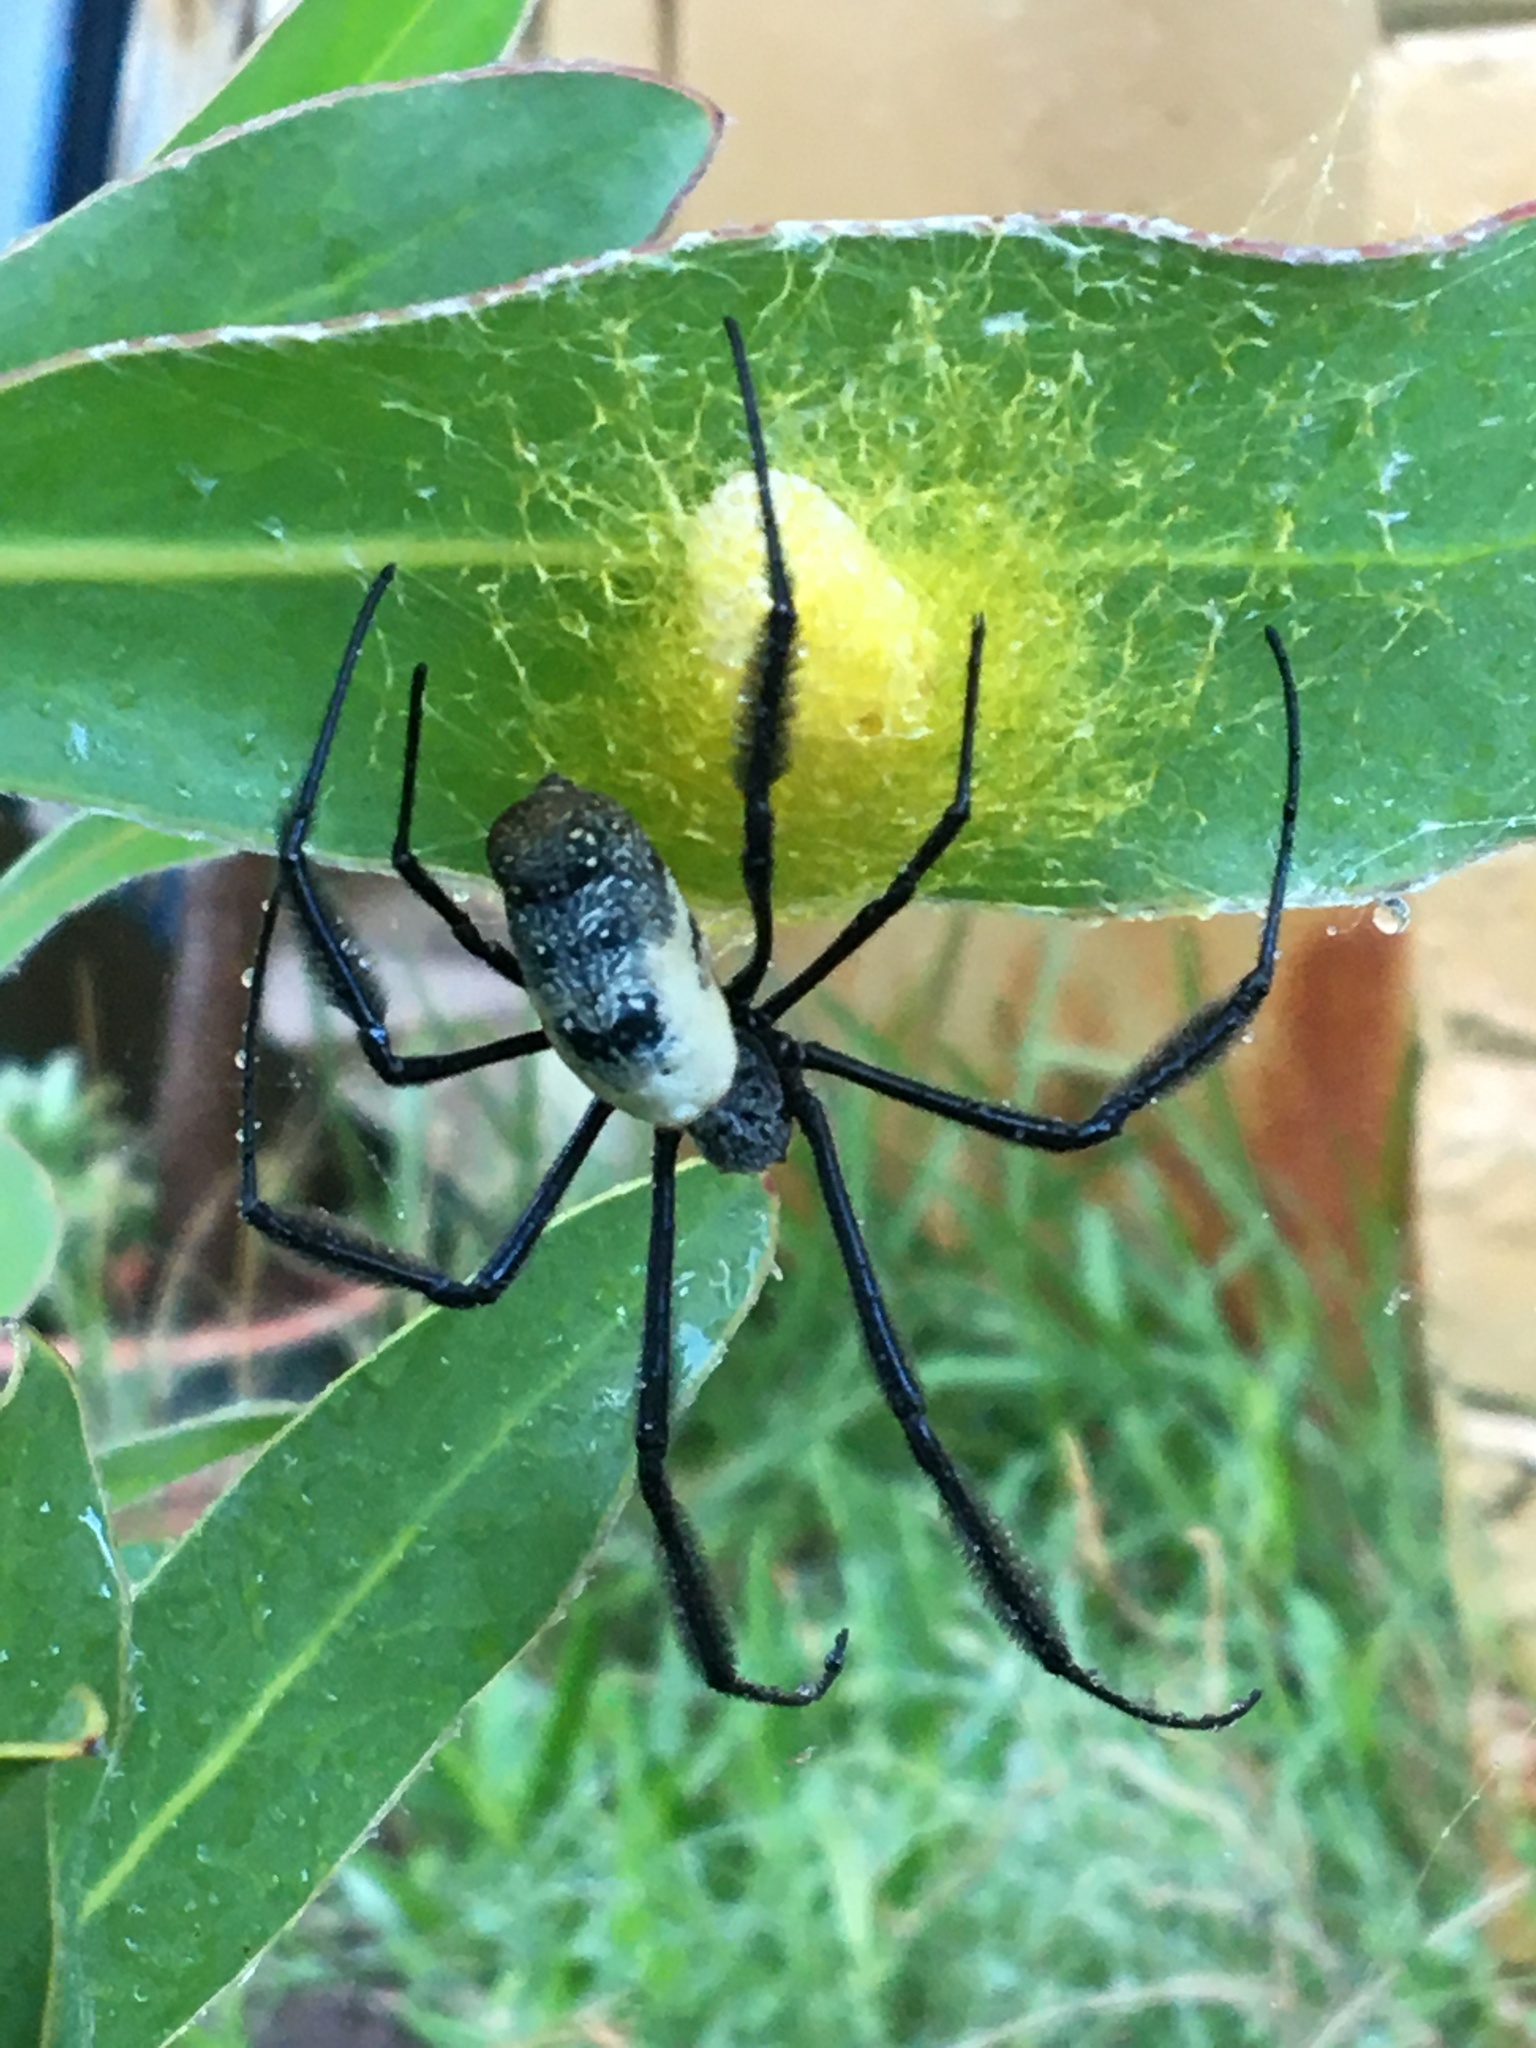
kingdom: Animalia
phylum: Arthropoda
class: Arachnida
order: Araneae
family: Araneidae
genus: Trichonephila
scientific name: Trichonephila fenestrata
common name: Hairy golden orb weaver
